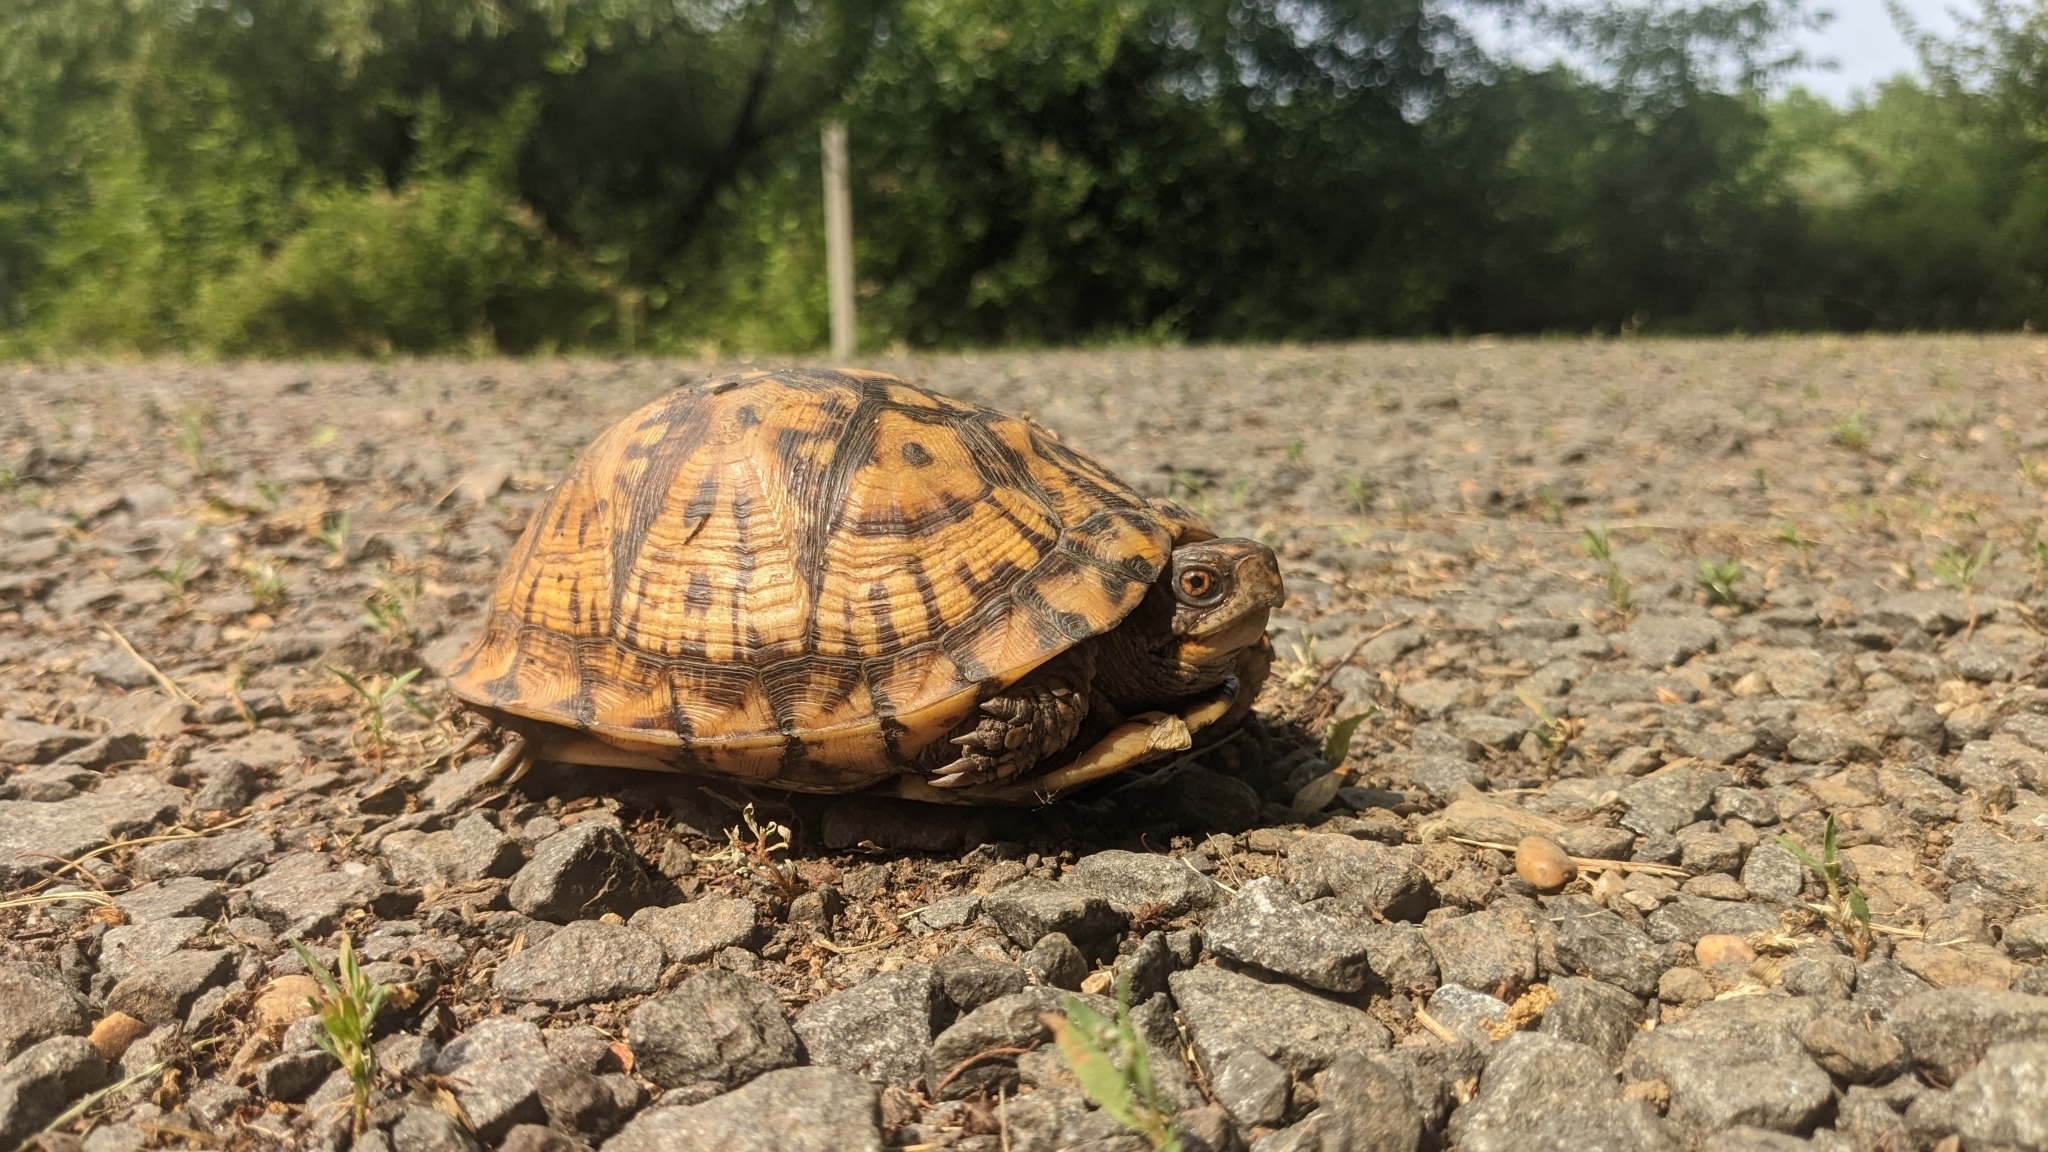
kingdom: Animalia
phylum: Chordata
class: Testudines
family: Emydidae
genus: Terrapene
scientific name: Terrapene carolina
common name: Common box turtle
